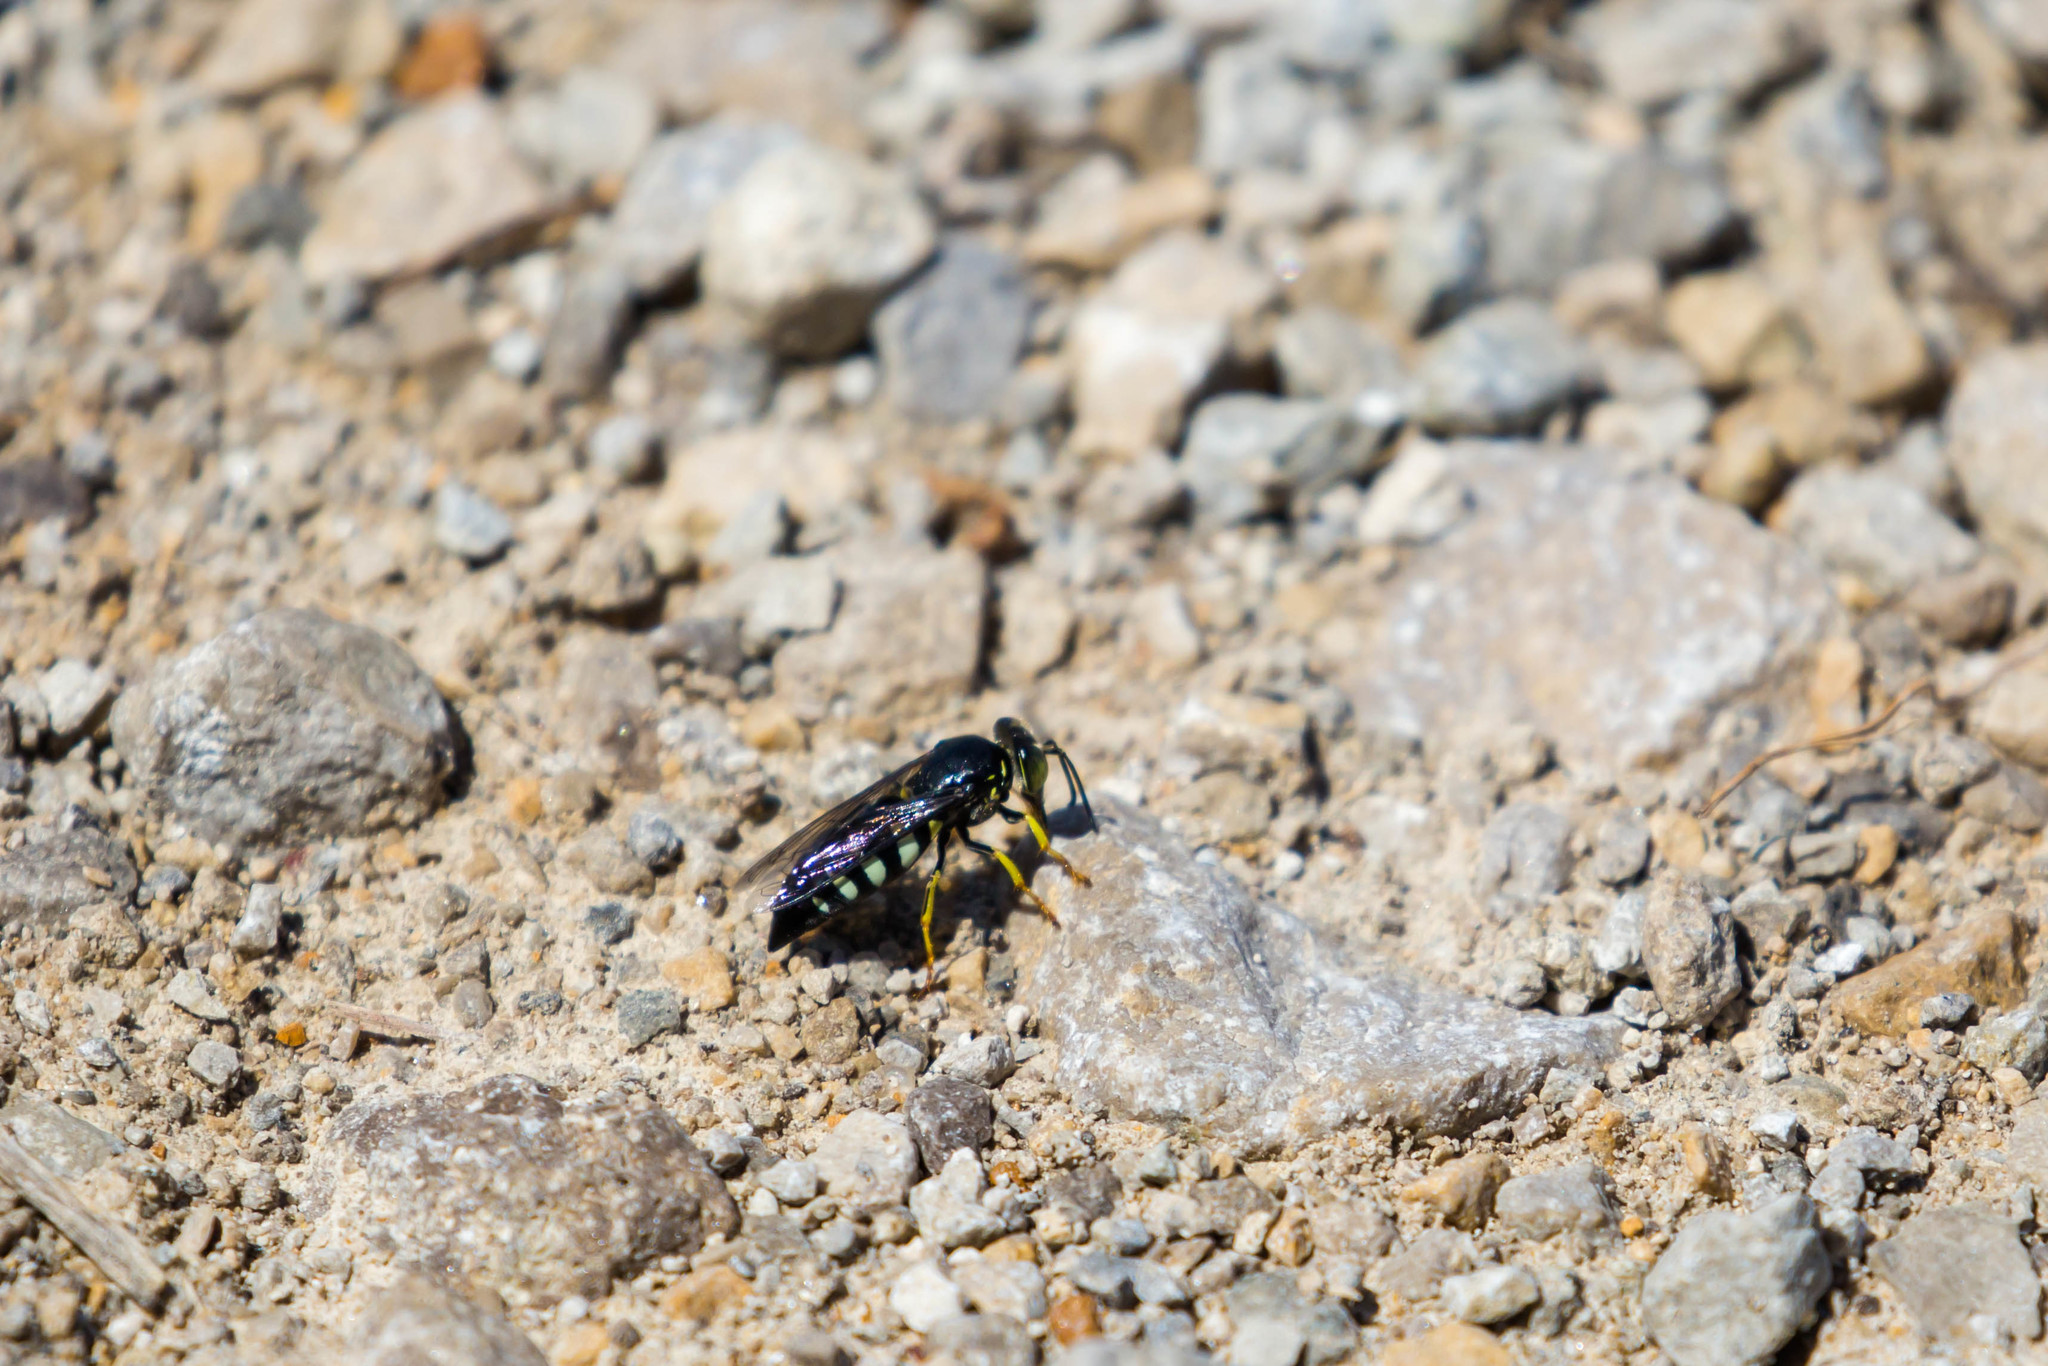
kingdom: Animalia
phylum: Arthropoda
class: Insecta
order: Hymenoptera
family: Crabronidae
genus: Bicyrtes
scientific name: Bicyrtes quadrifasciatus
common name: Four-banded stink bug hunter wasp
